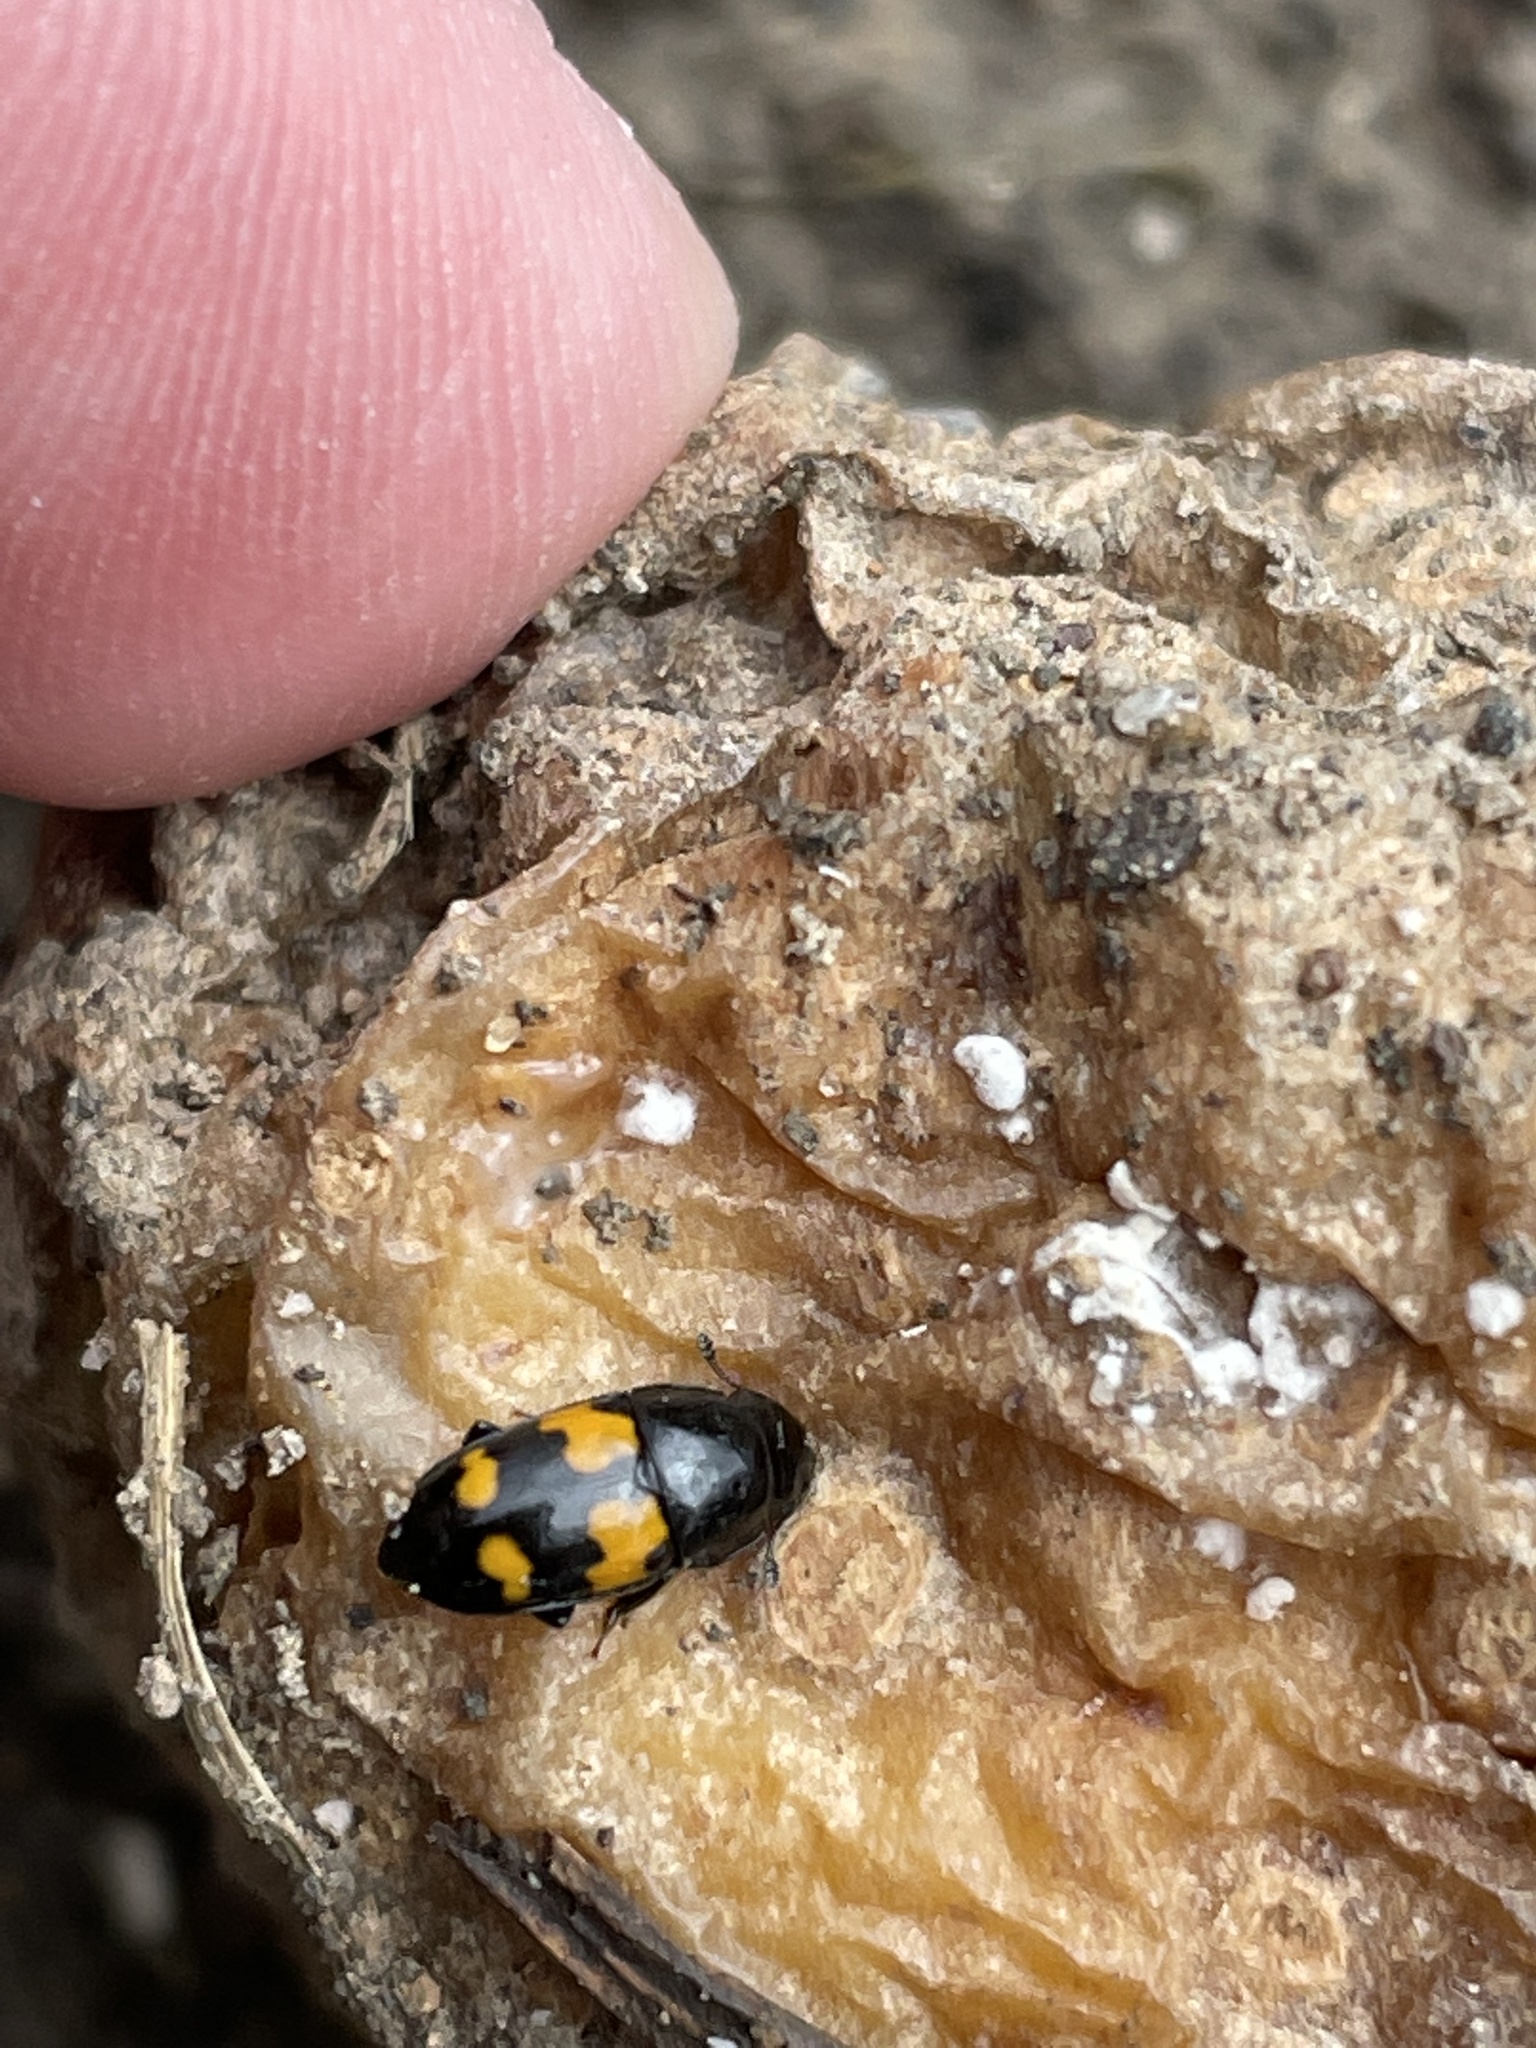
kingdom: Animalia
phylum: Arthropoda
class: Insecta
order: Coleoptera
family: Nitidulidae
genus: Glischrochilus
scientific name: Glischrochilus fasciatus
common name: Picnic beetle
